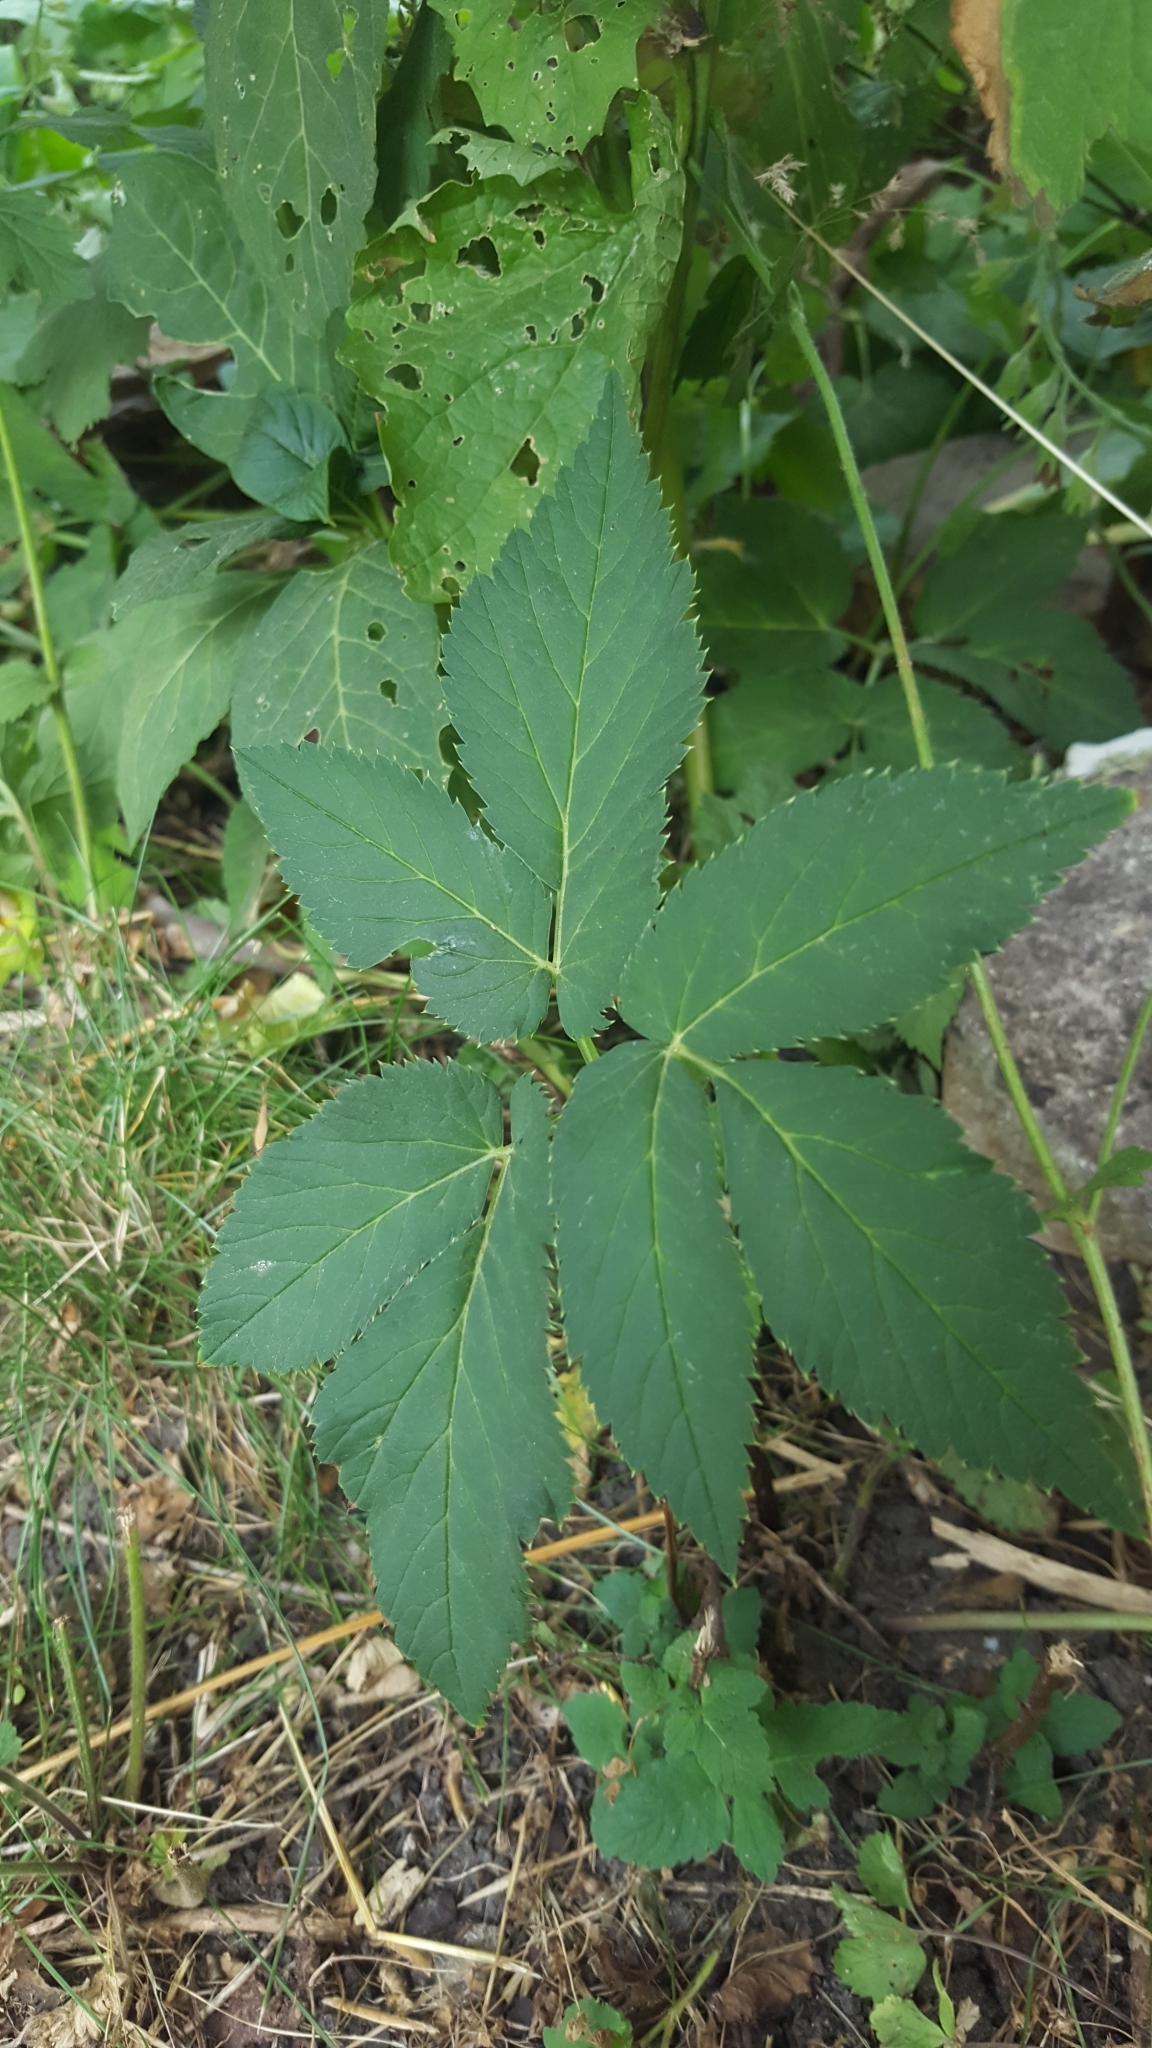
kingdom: Plantae
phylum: Tracheophyta
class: Magnoliopsida
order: Apiales
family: Apiaceae
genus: Aegopodium
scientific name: Aegopodium podagraria
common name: Ground-elder
